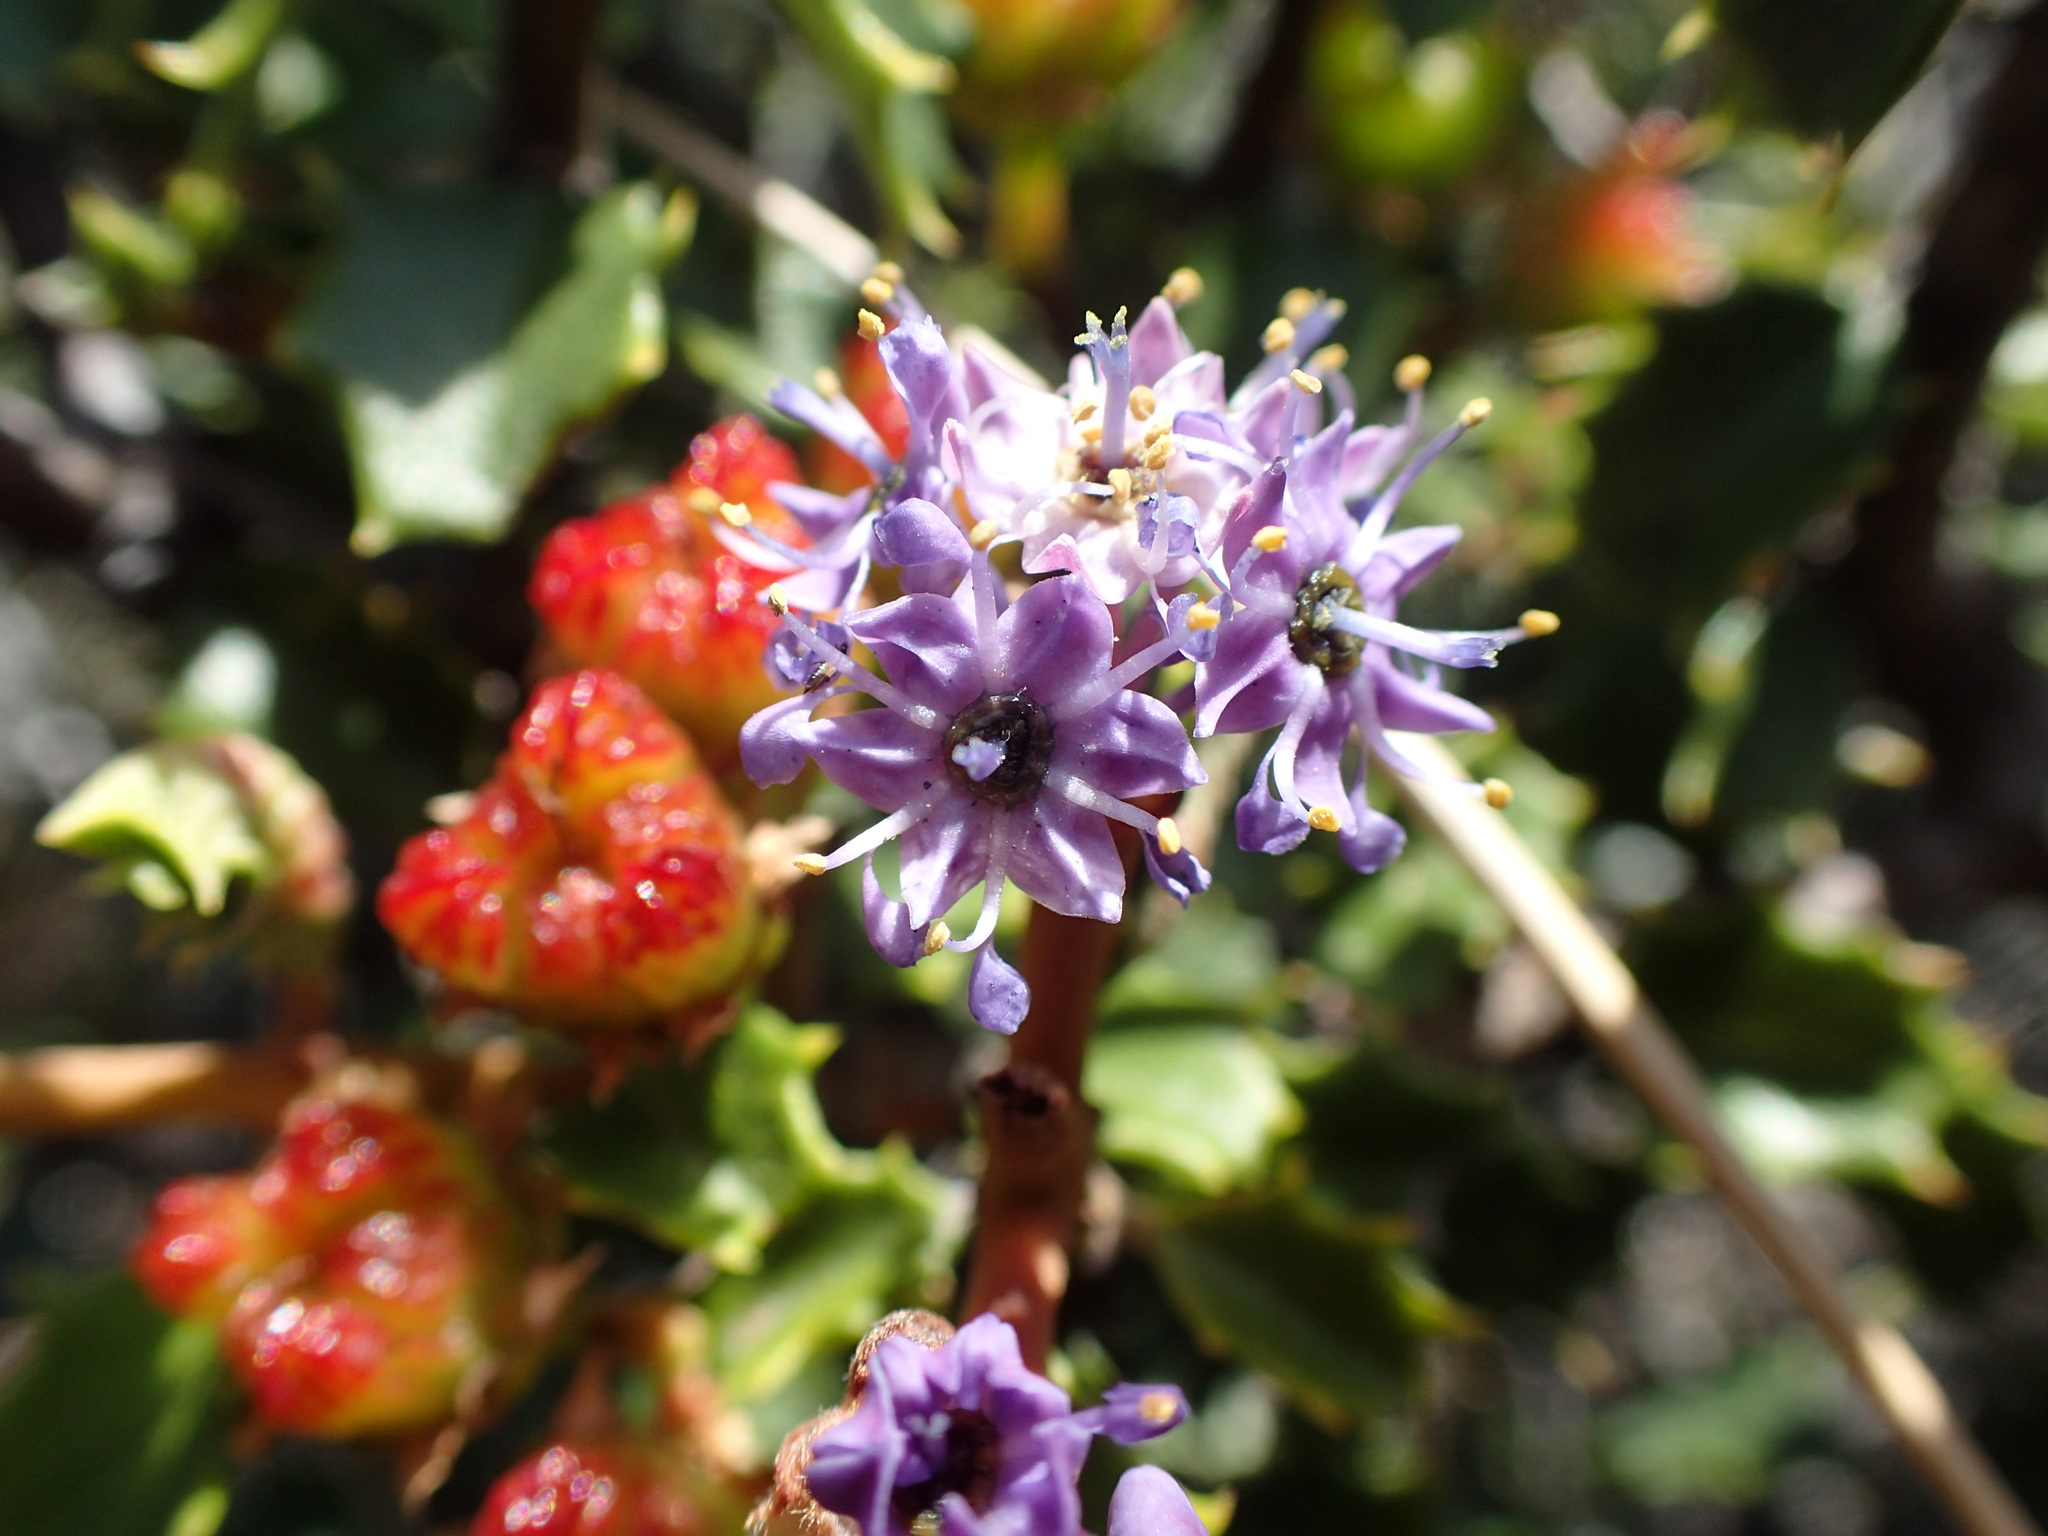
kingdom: Plantae
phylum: Tracheophyta
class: Magnoliopsida
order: Rosales
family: Rhamnaceae
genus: Ceanothus
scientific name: Ceanothus jepsonii
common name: Muskbrush
